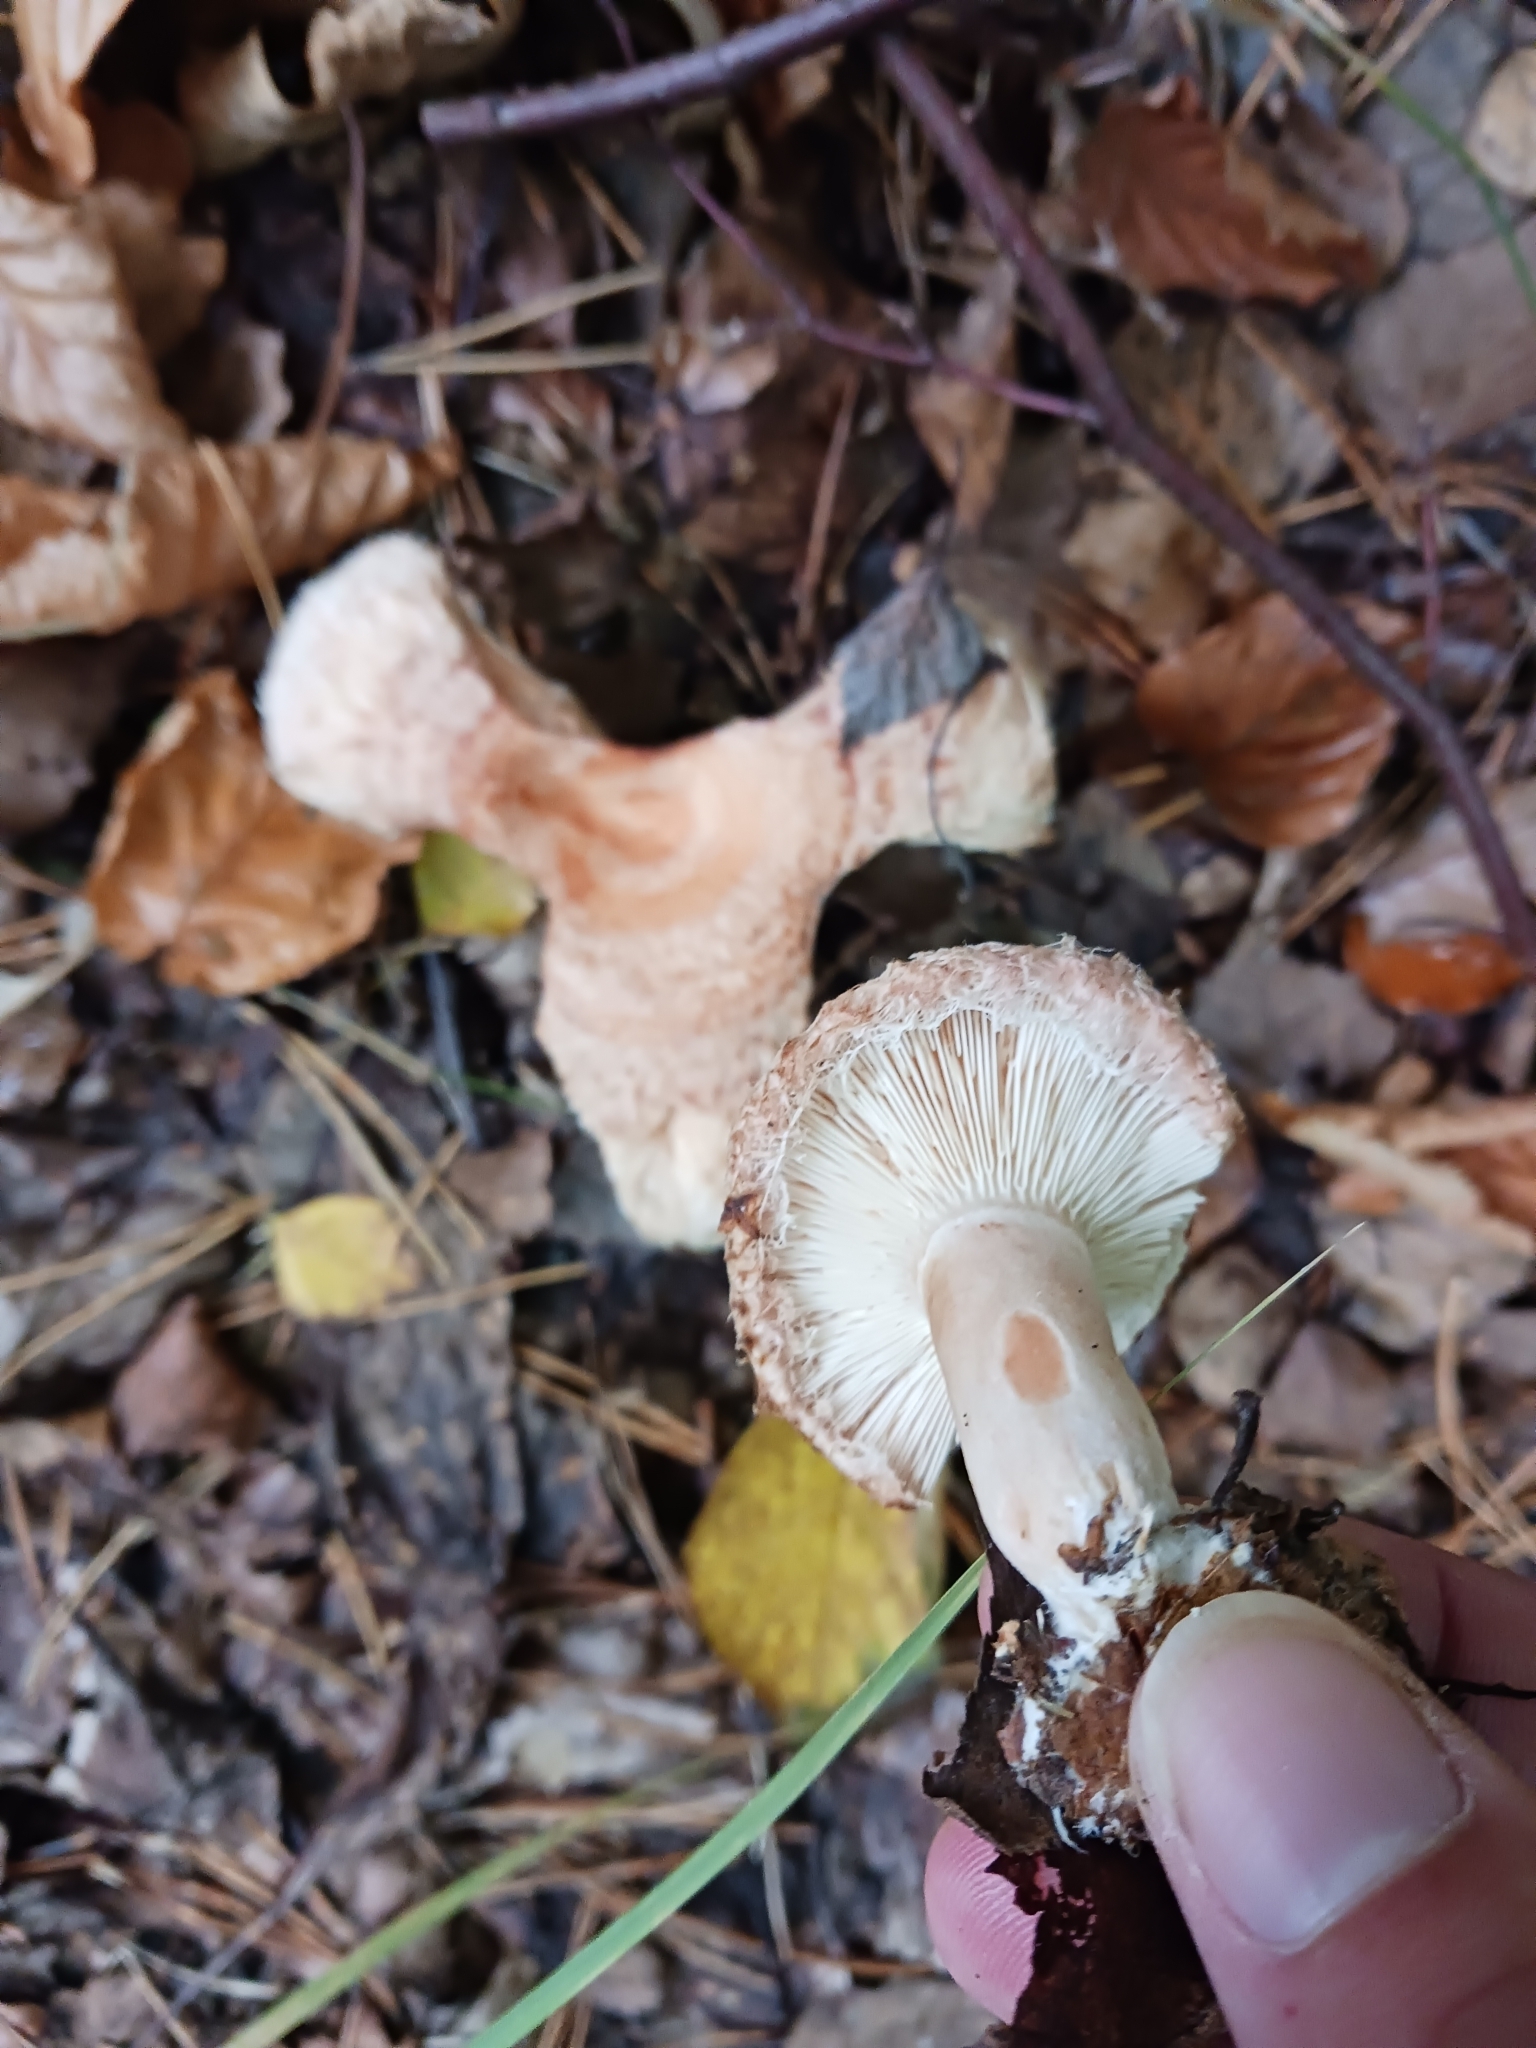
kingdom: Fungi
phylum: Basidiomycota
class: Agaricomycetes
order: Russulales
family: Russulaceae
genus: Lactarius
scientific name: Lactarius torminosus
